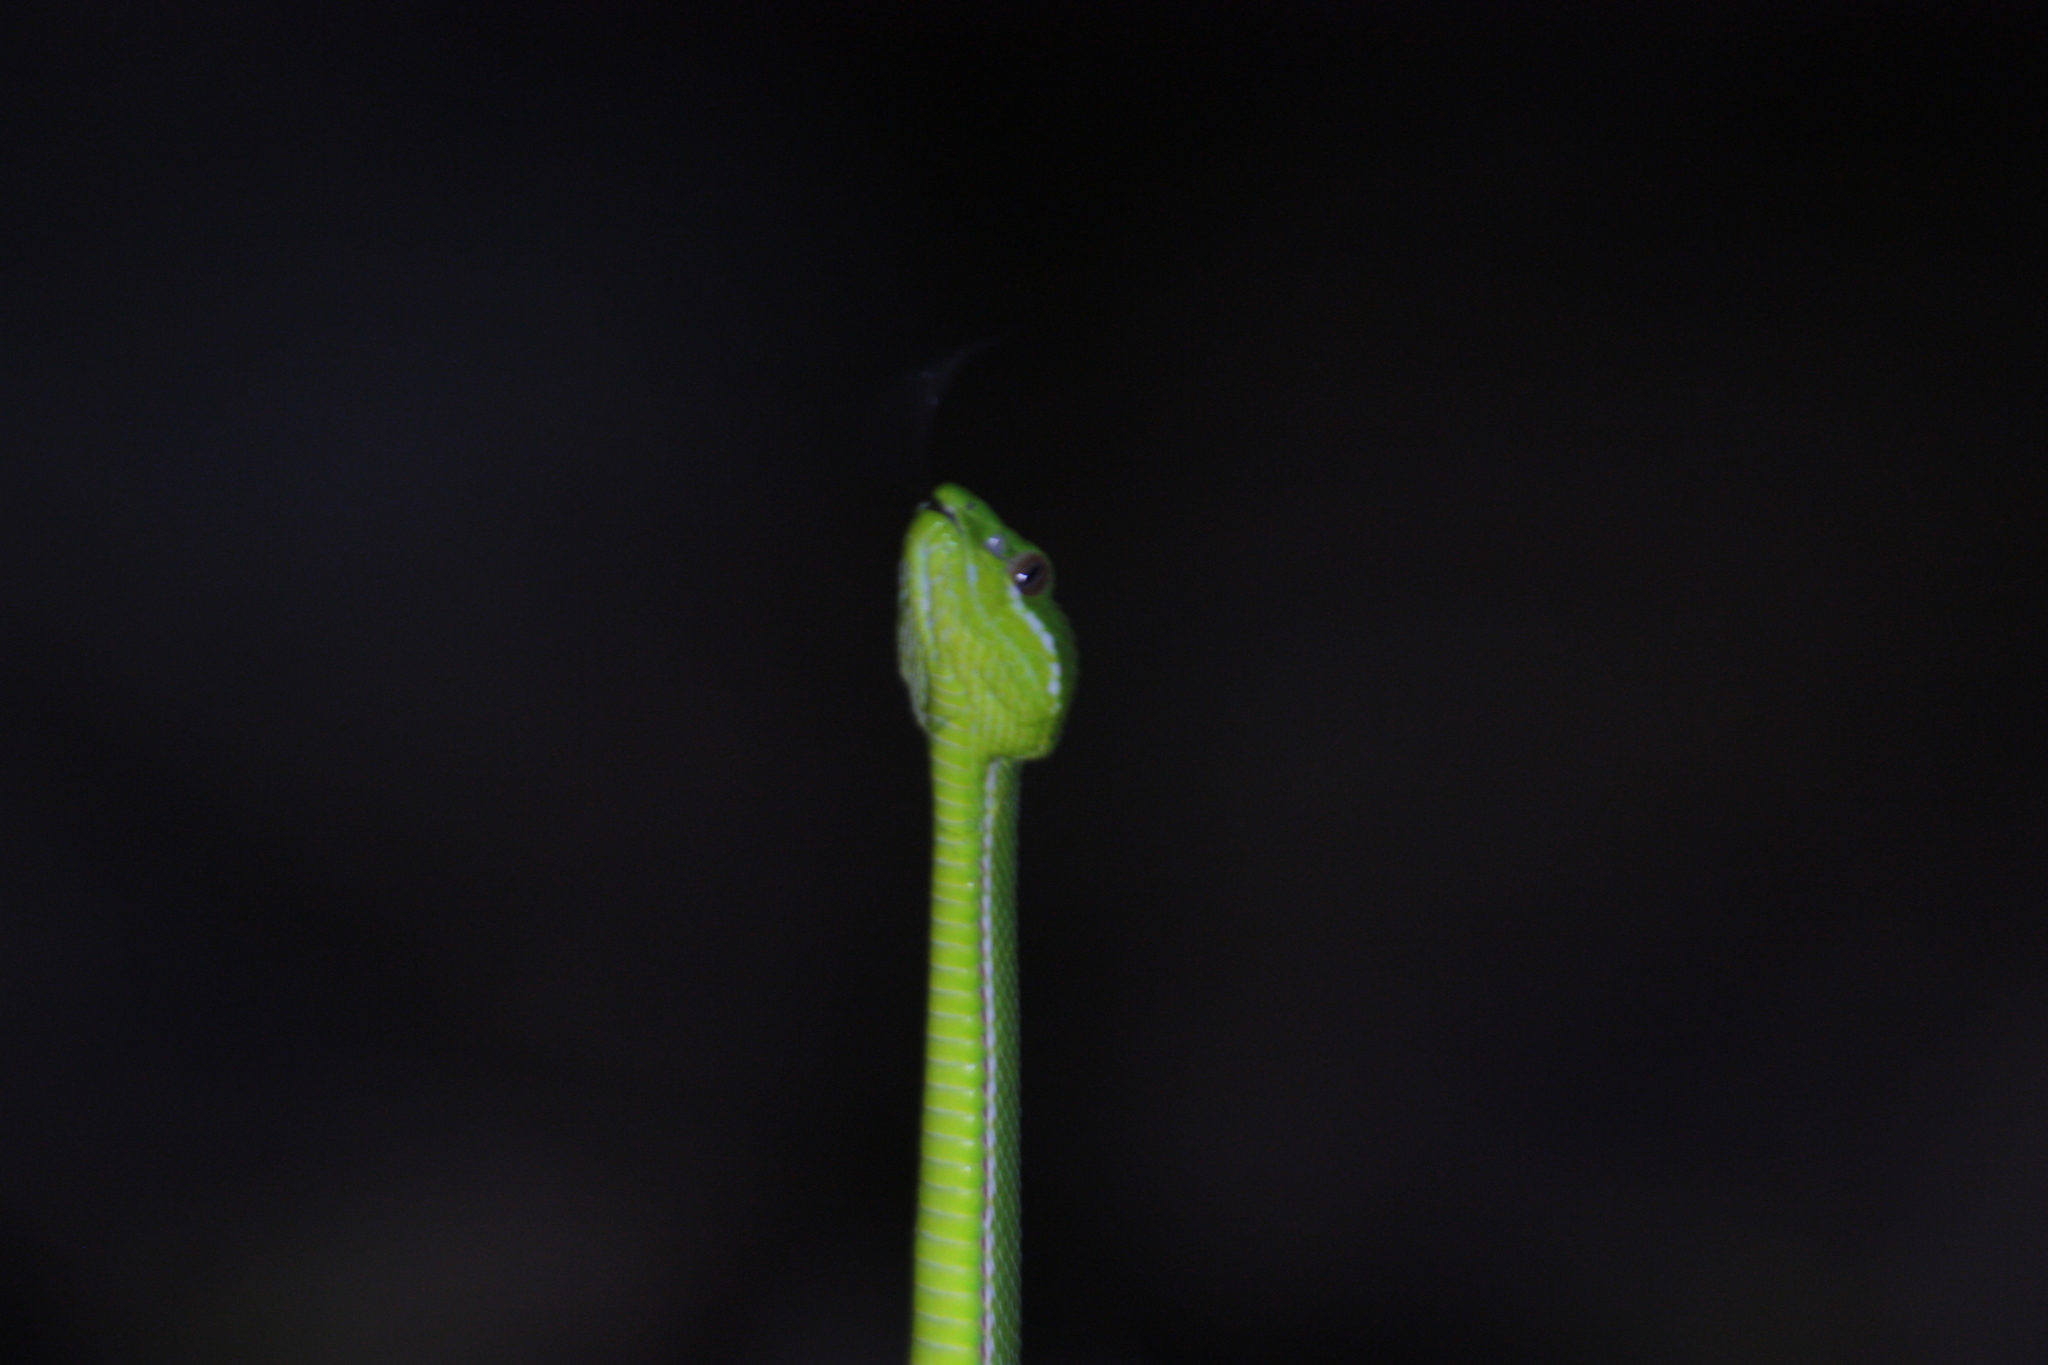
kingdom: Animalia
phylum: Chordata
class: Squamata
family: Viperidae
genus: Trimeresurus
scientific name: Trimeresurus stejnegeri
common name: Chen’s bamboo pit viper
